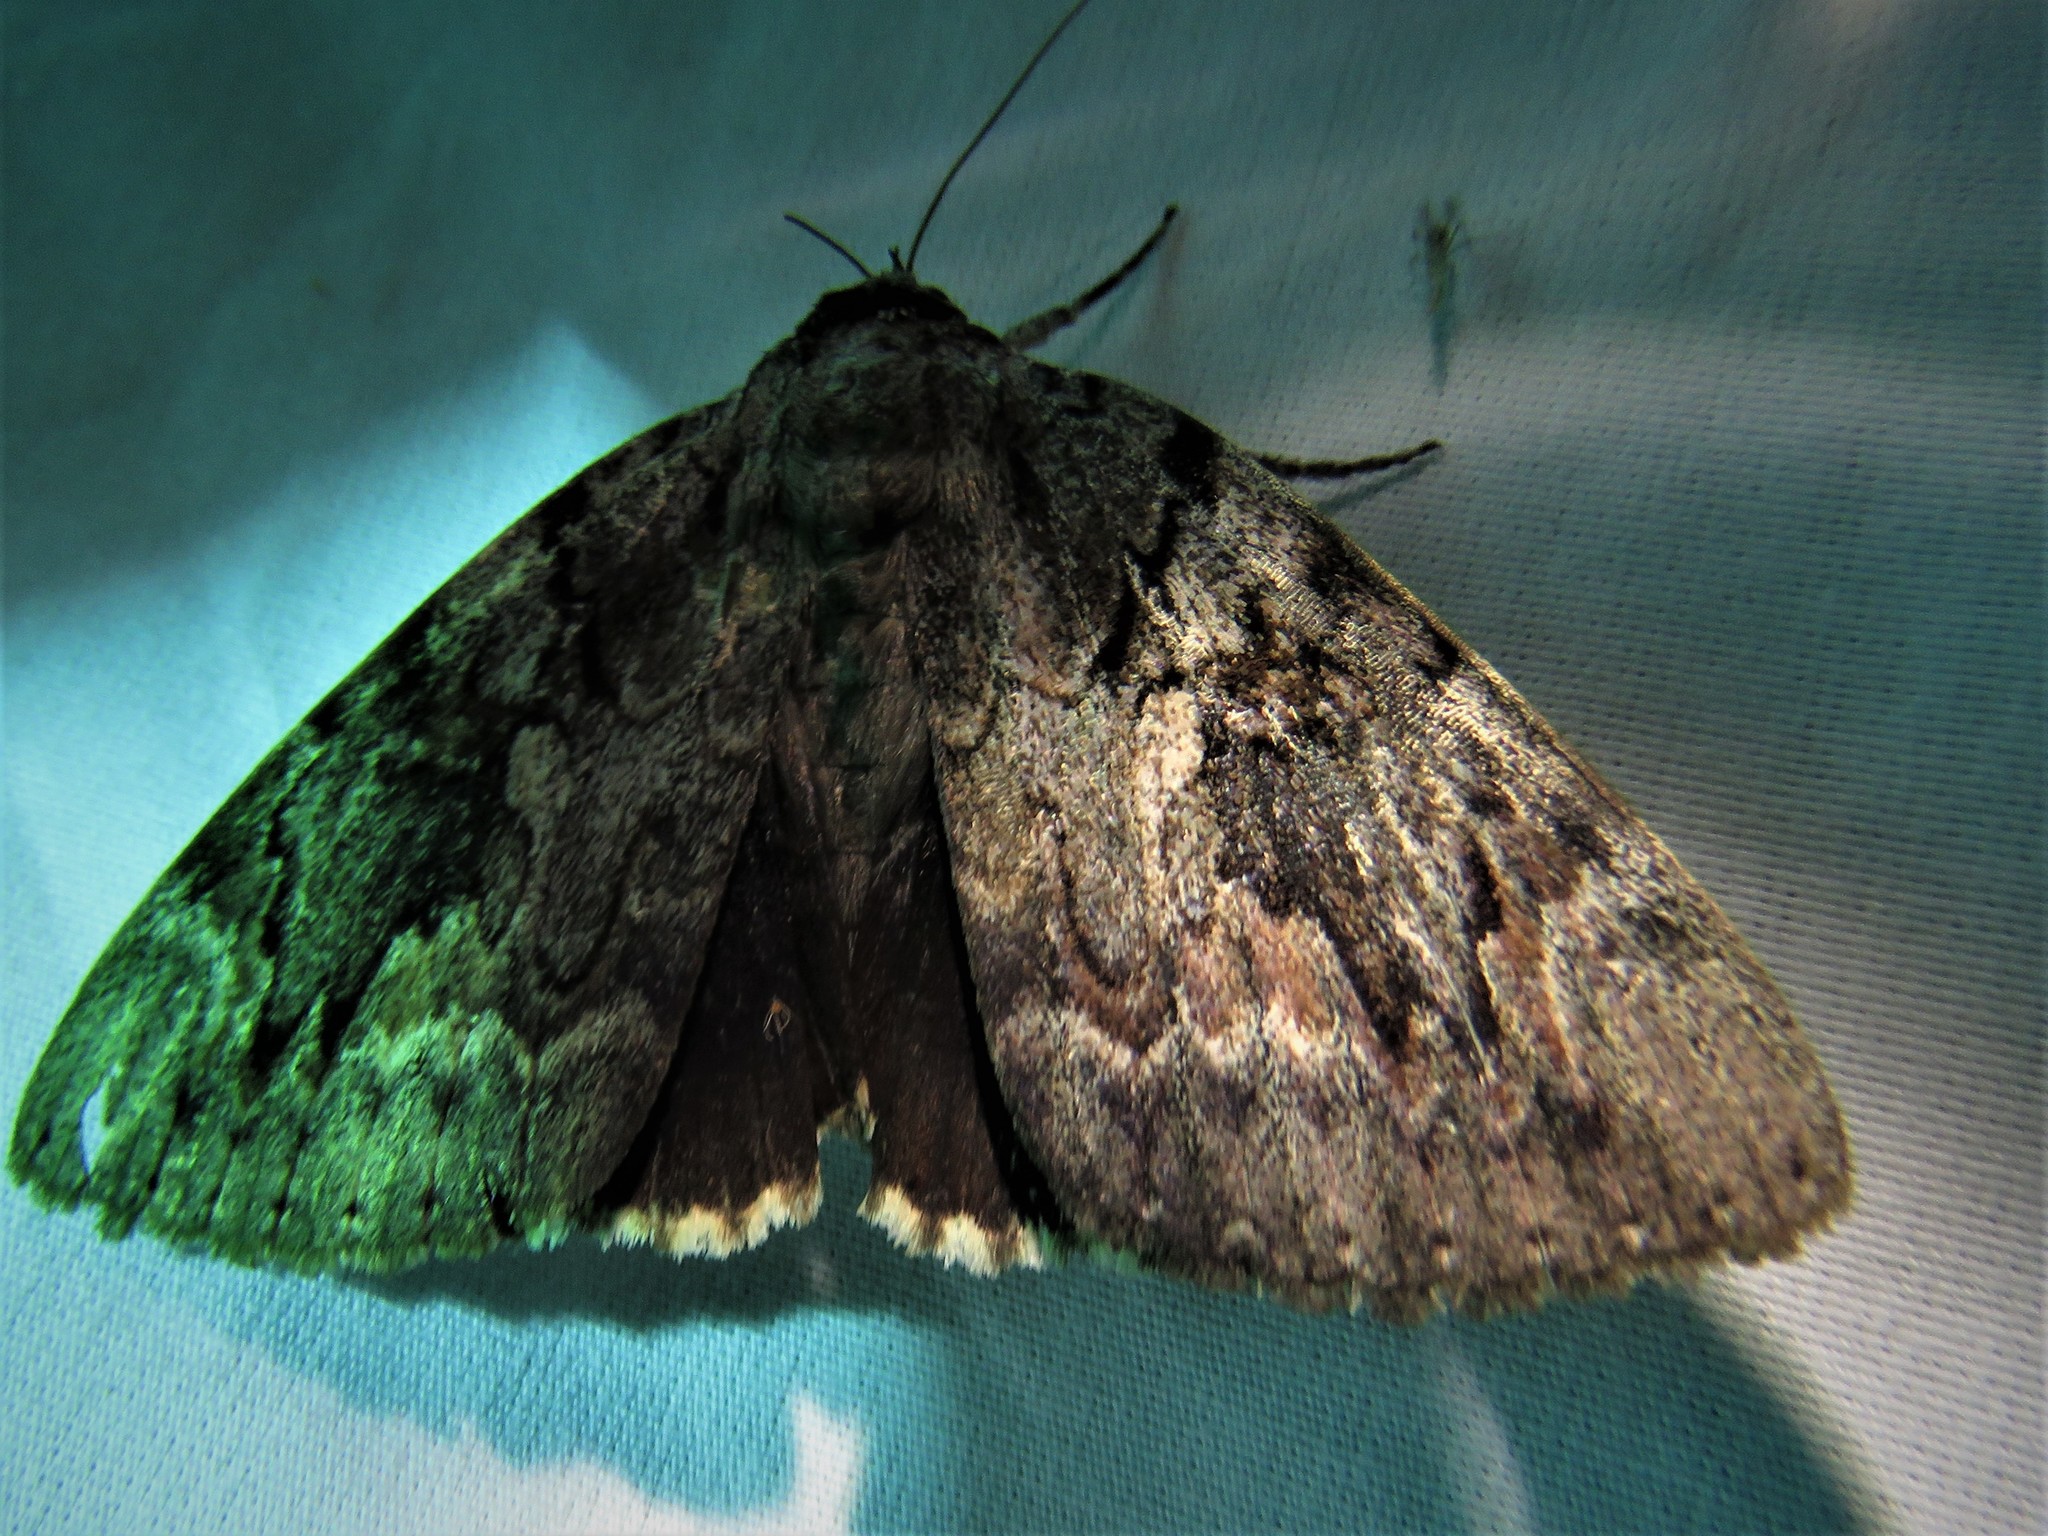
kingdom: Animalia
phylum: Arthropoda
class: Insecta
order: Lepidoptera
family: Erebidae
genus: Catocala
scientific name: Catocala agrippina
